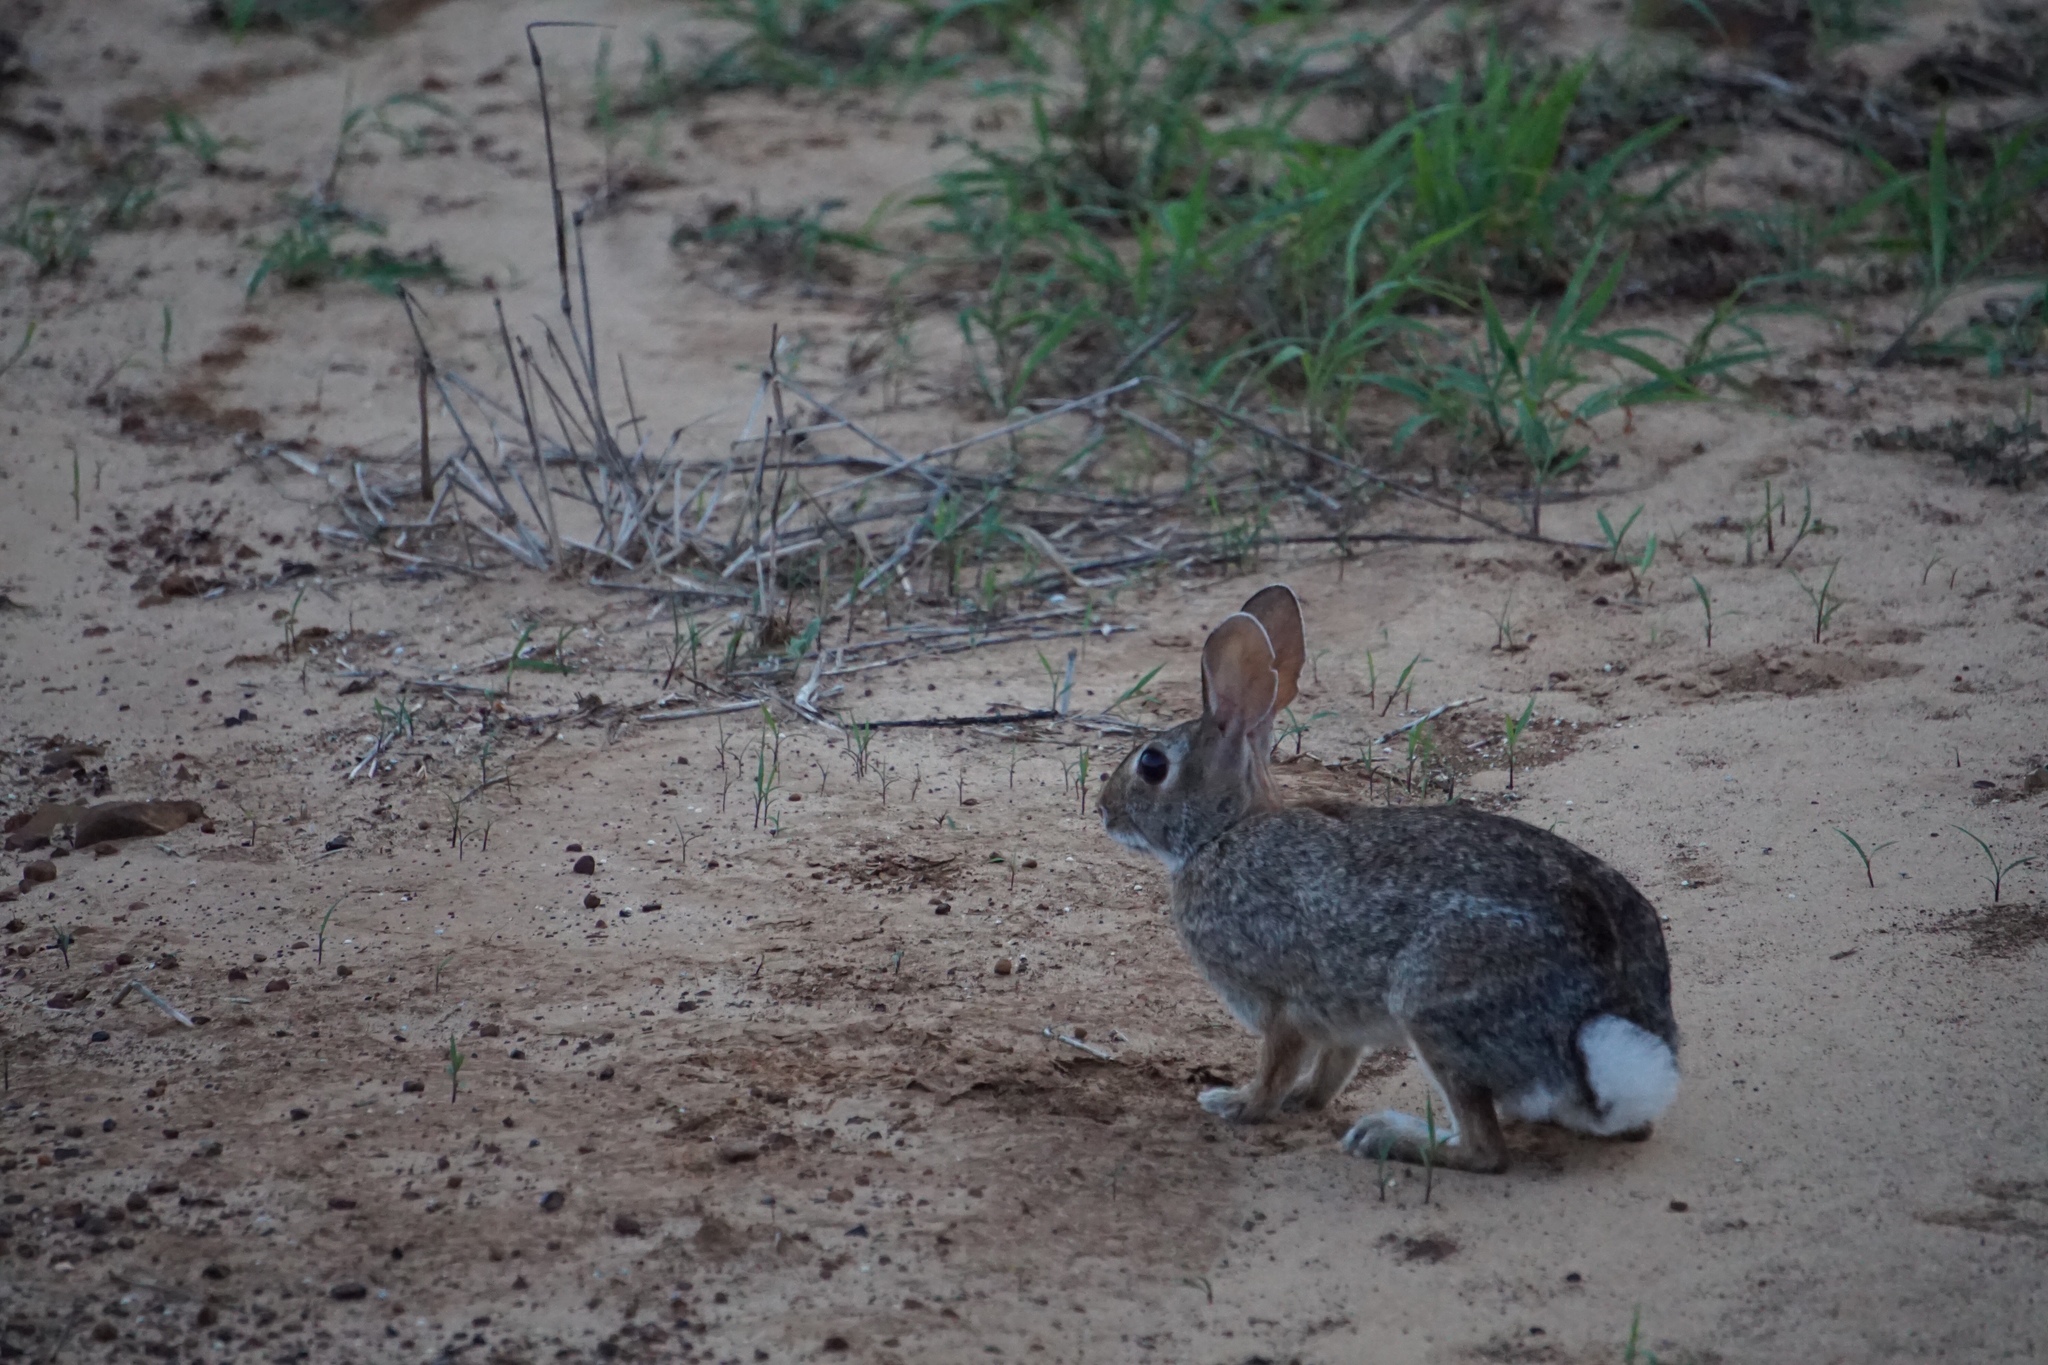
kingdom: Animalia
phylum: Chordata
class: Mammalia
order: Lagomorpha
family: Leporidae
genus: Sylvilagus
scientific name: Sylvilagus floridanus
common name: Eastern cottontail
